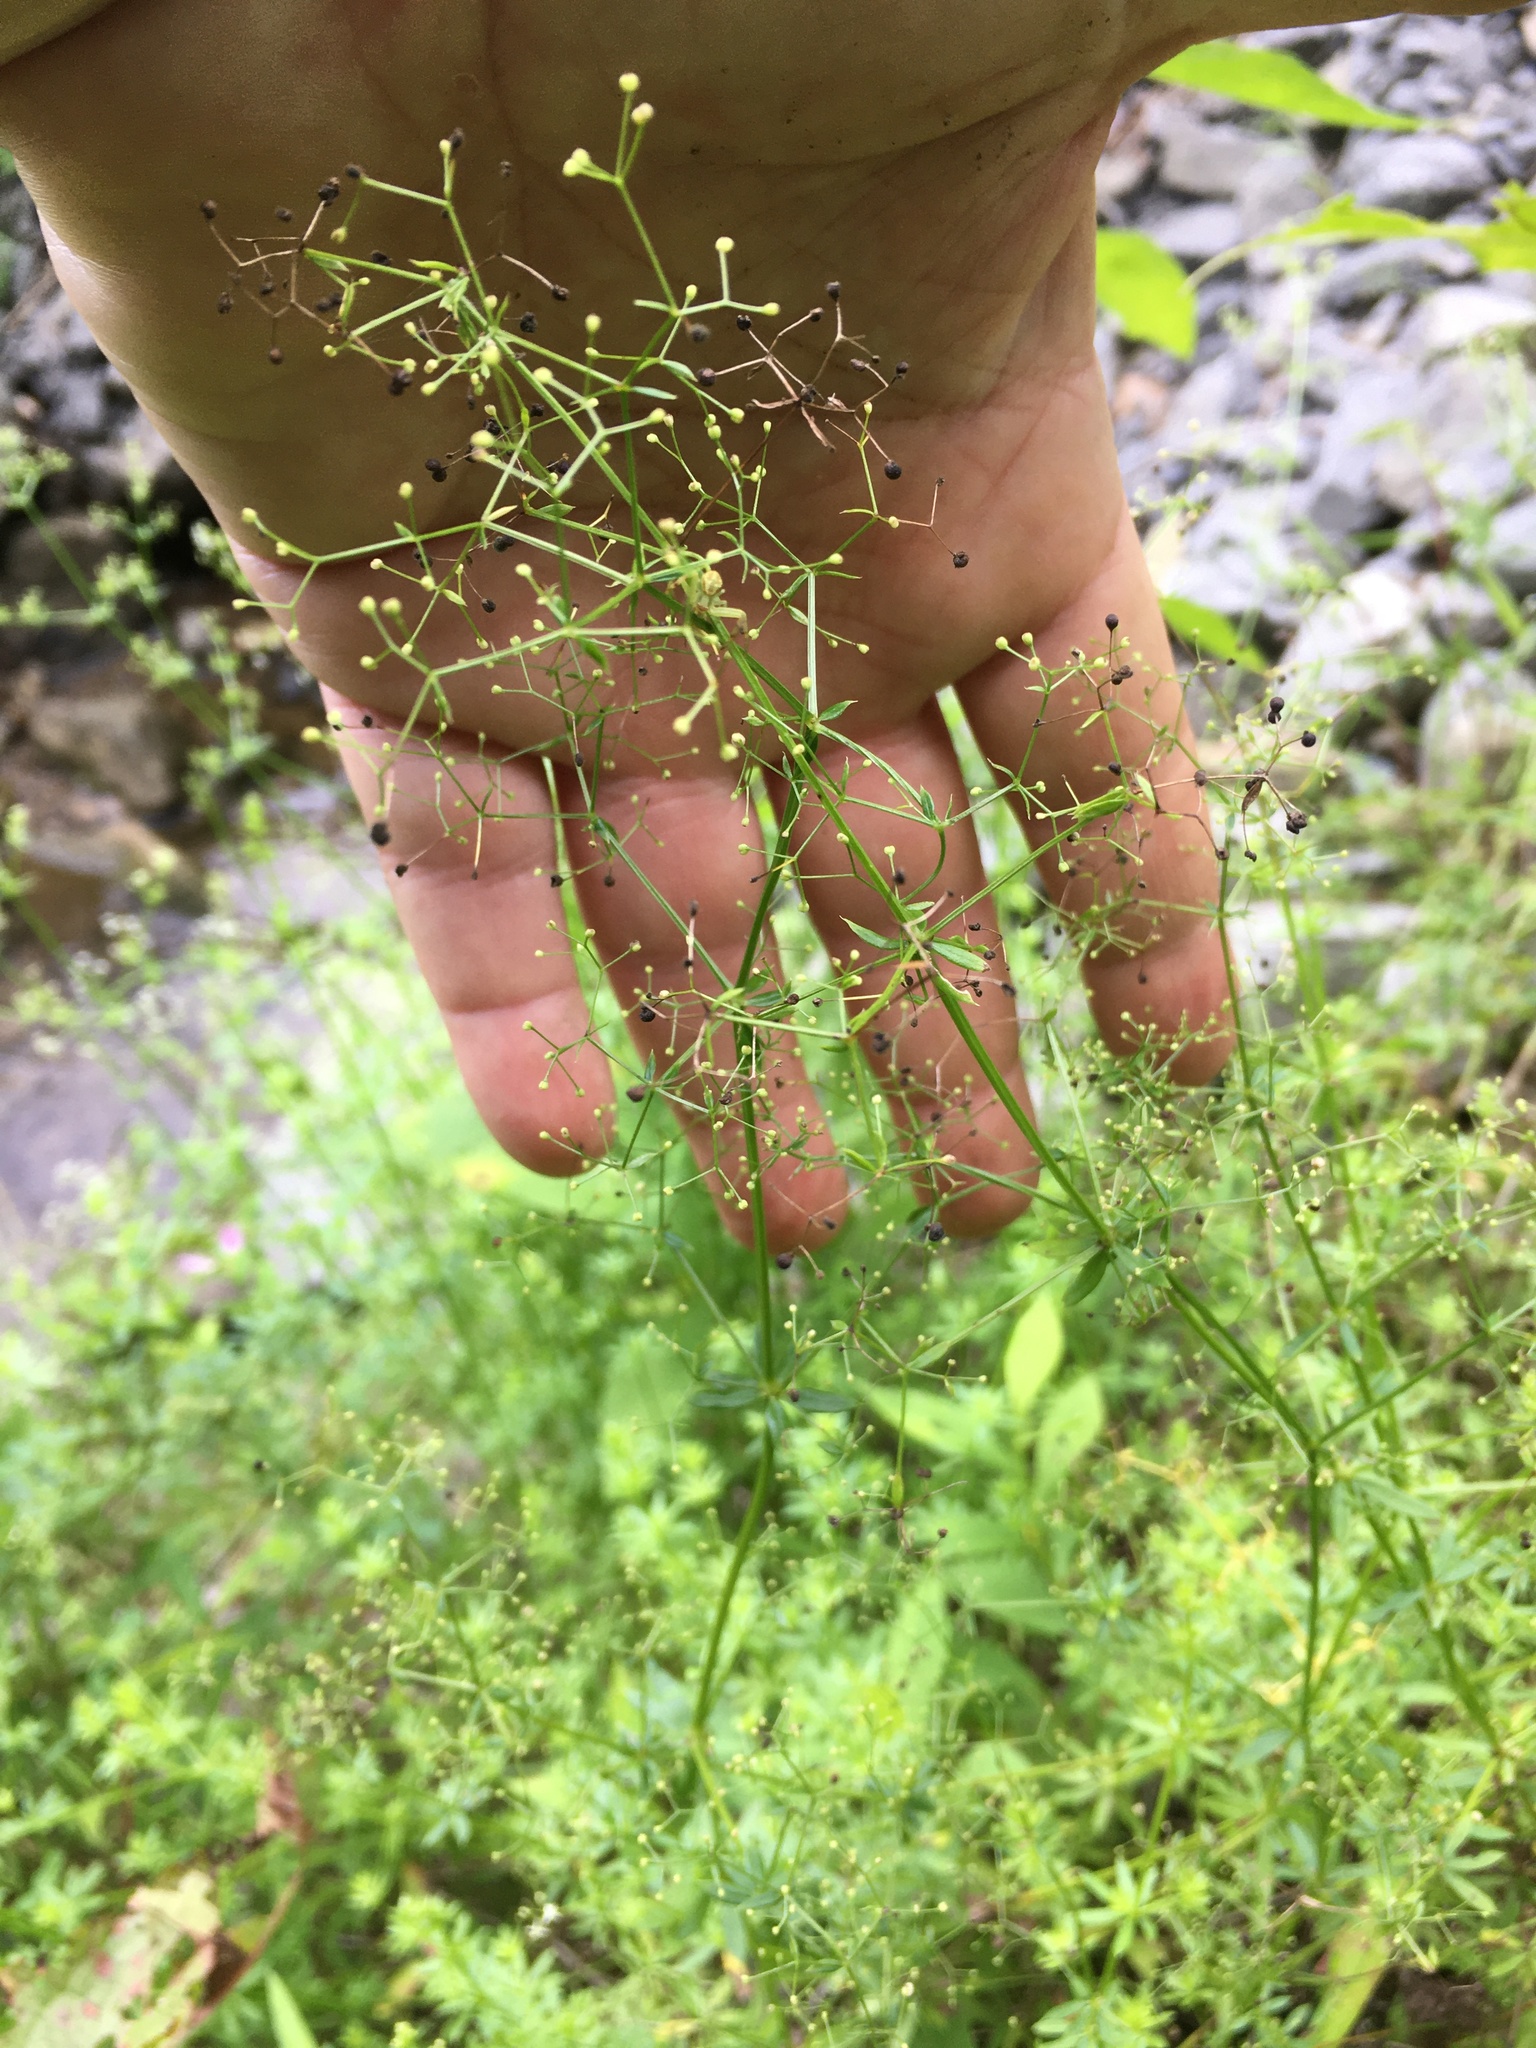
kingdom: Plantae
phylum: Tracheophyta
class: Magnoliopsida
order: Gentianales
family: Rubiaceae
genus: Galium
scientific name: Galium mollugo
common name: Hedge bedstraw
